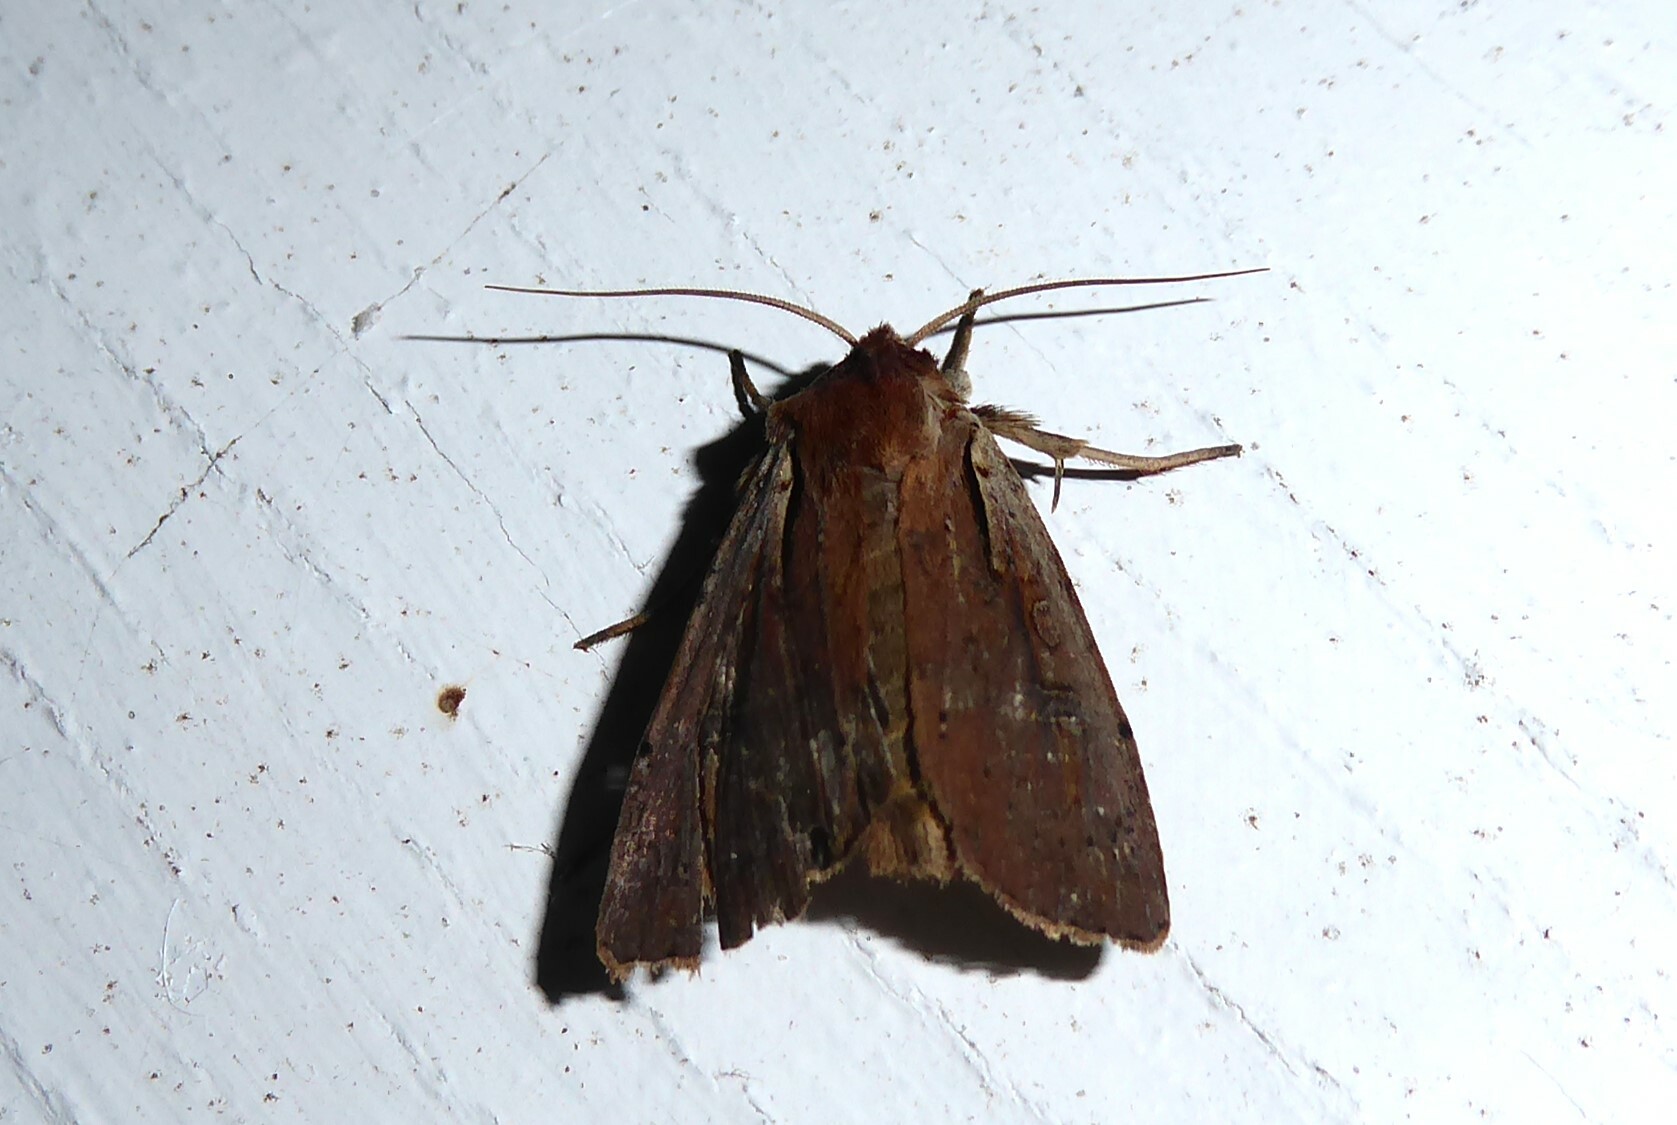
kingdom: Animalia
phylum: Arthropoda
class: Insecta
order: Lepidoptera
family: Noctuidae
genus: Ichneutica
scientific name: Ichneutica atristriga
